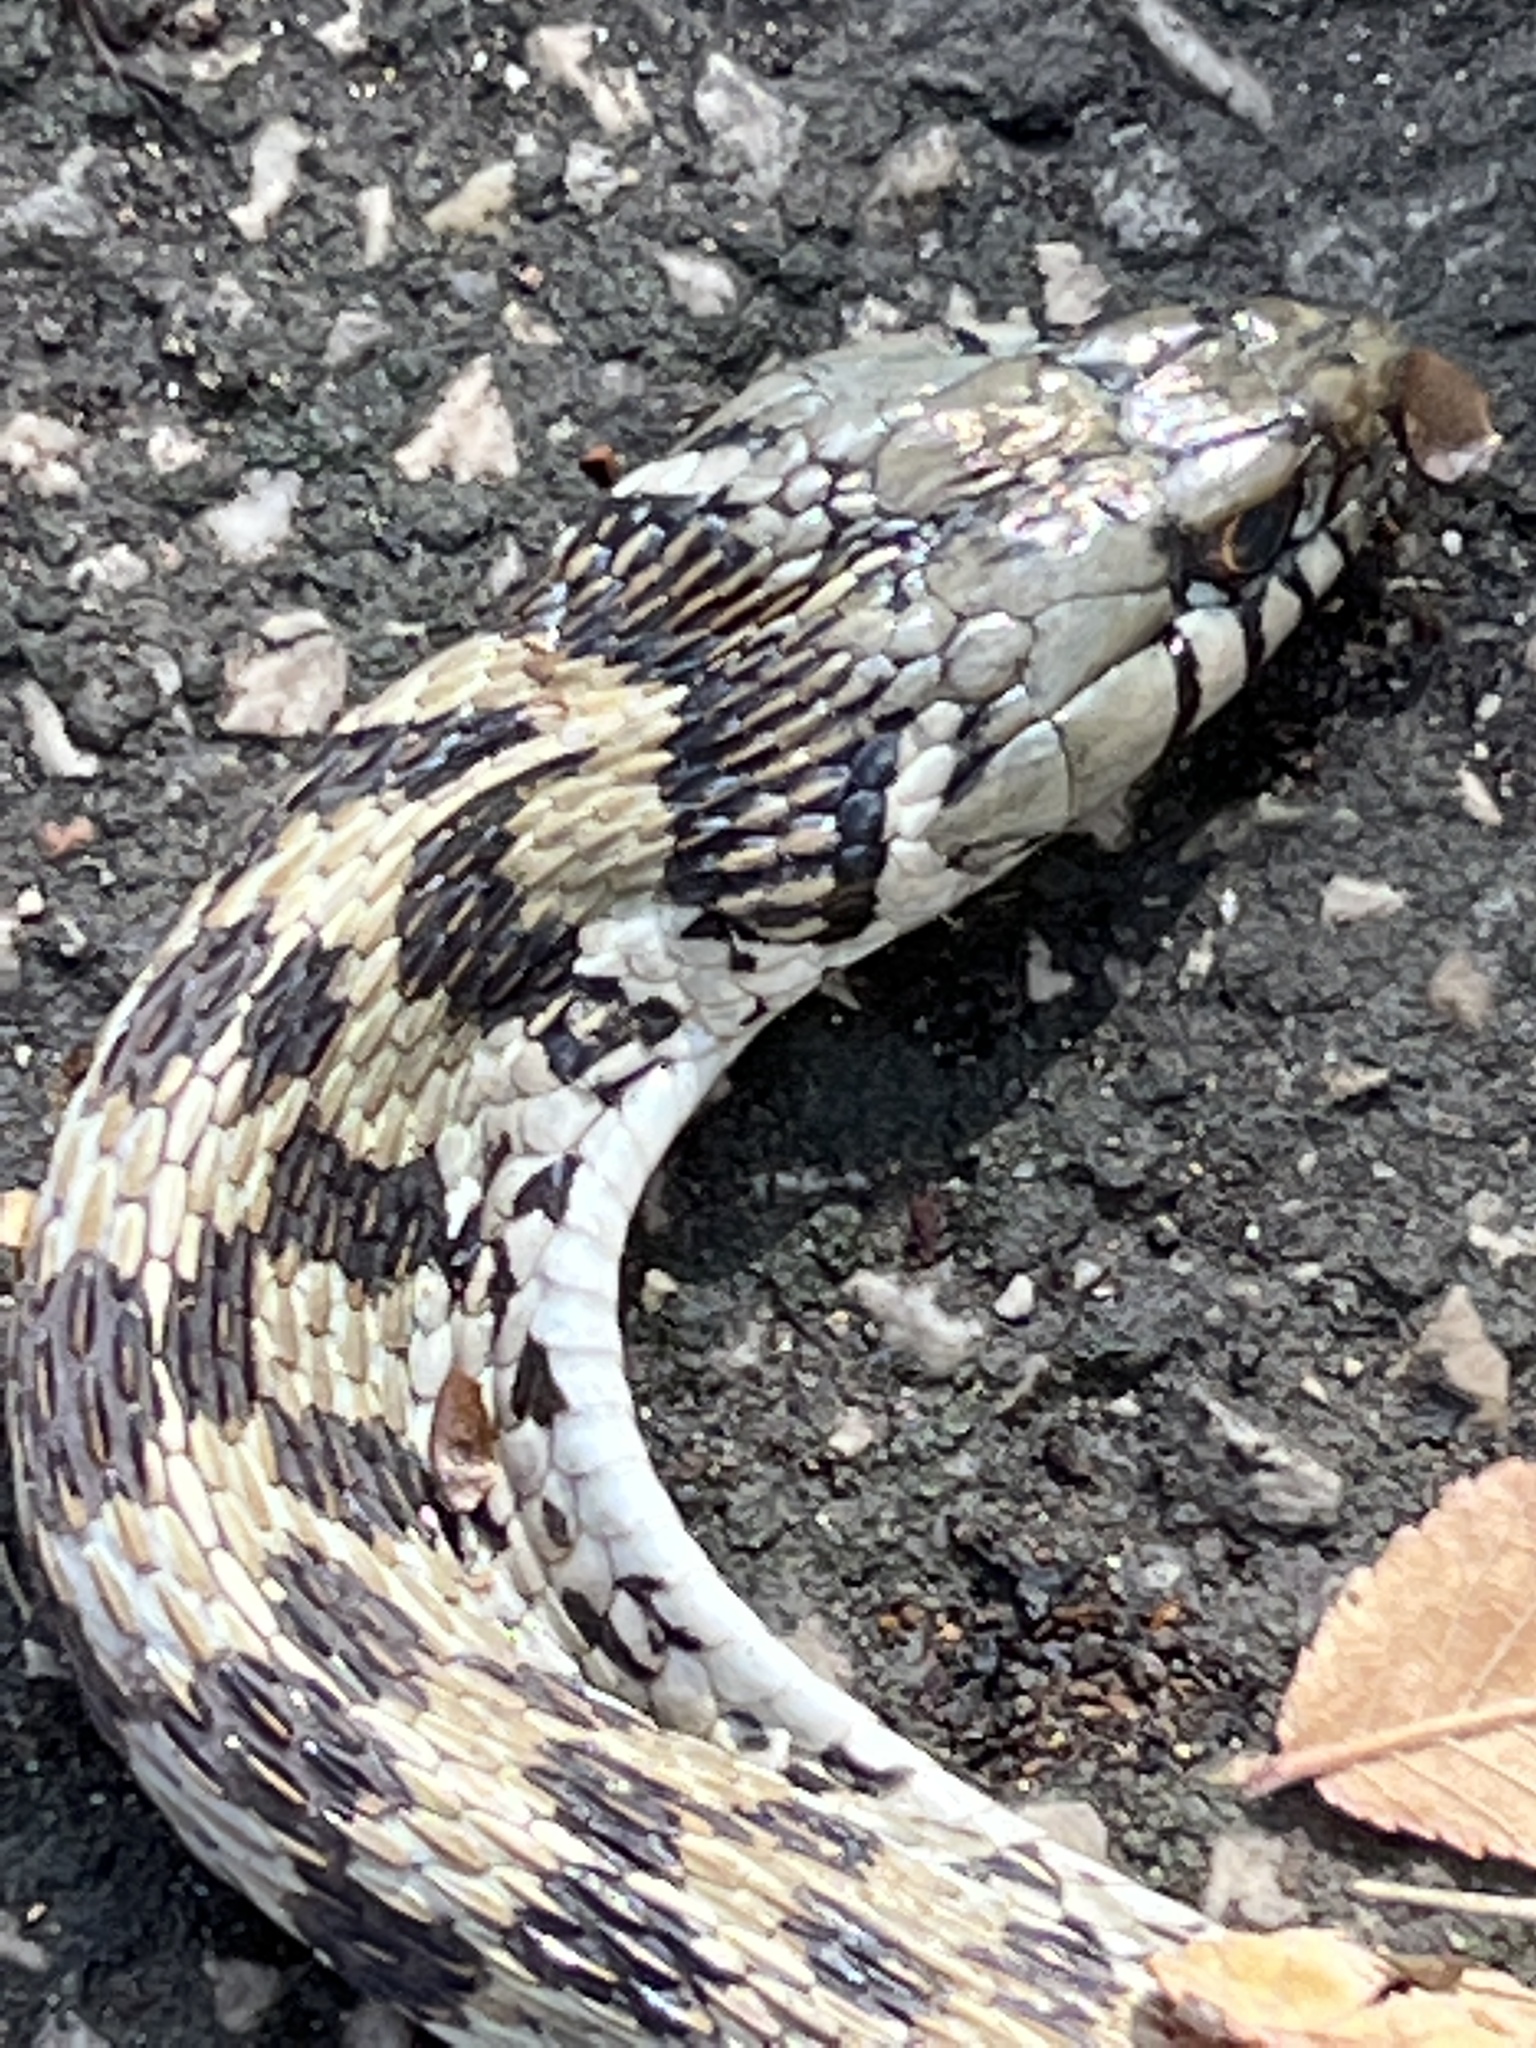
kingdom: Animalia
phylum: Chordata
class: Squamata
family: Colubridae
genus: Thamnophis
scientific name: Thamnophis marcianus
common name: Checkered garter snake
